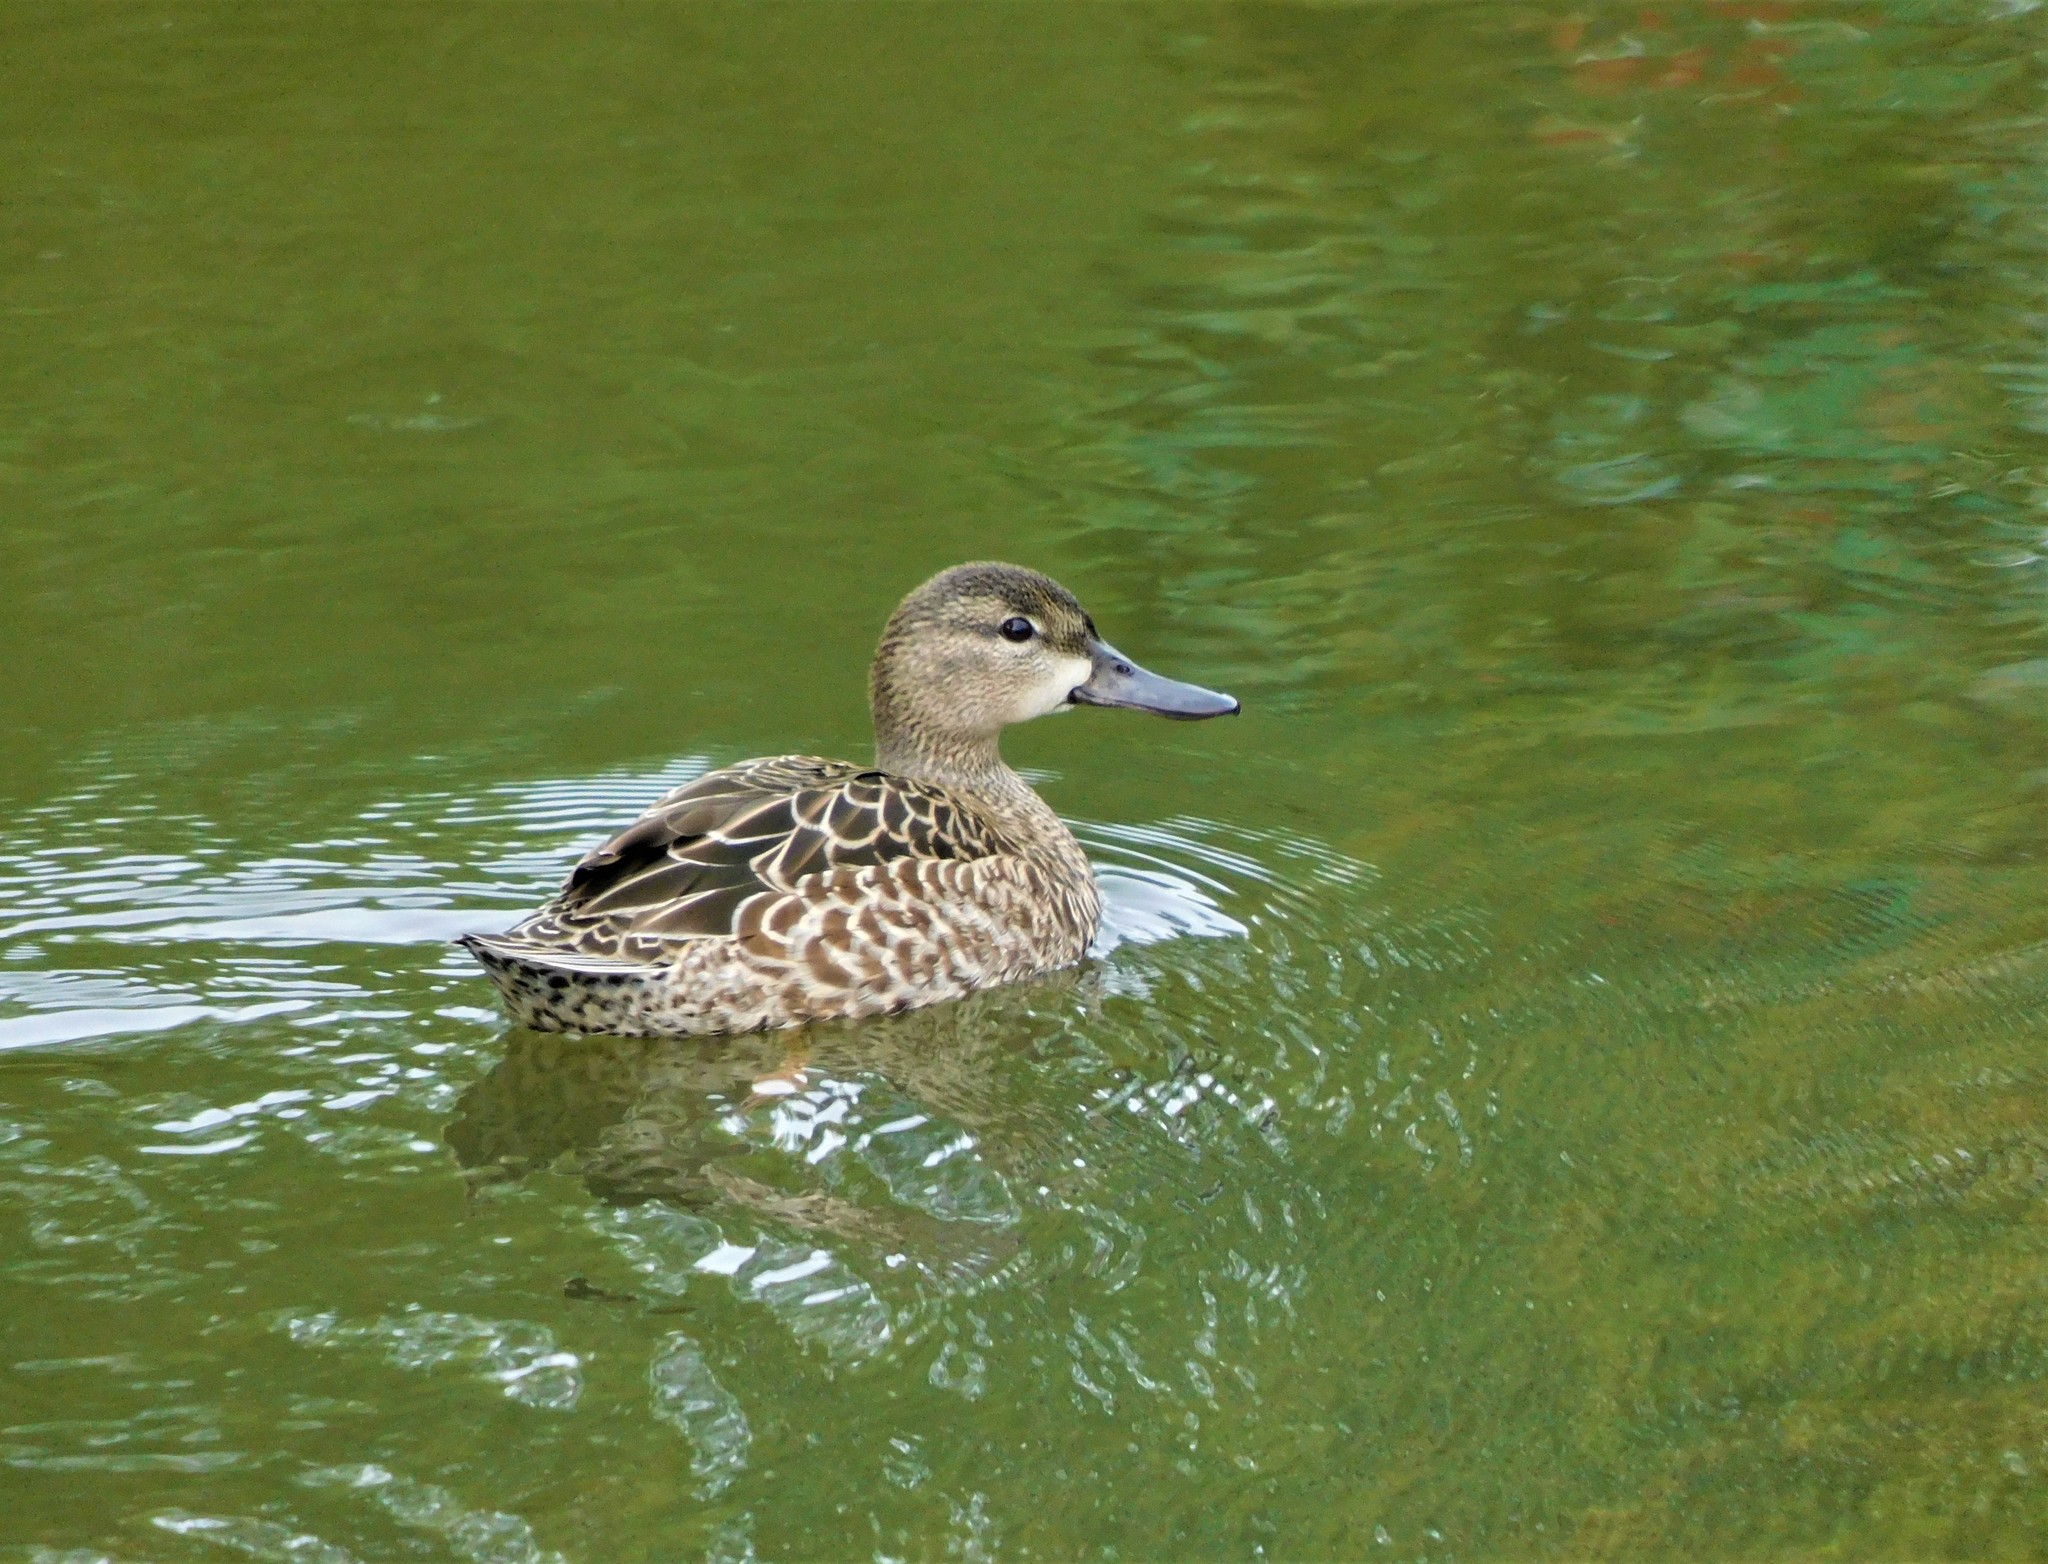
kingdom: Animalia
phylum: Chordata
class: Aves
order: Anseriformes
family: Anatidae
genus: Spatula
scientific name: Spatula discors
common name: Blue-winged teal
